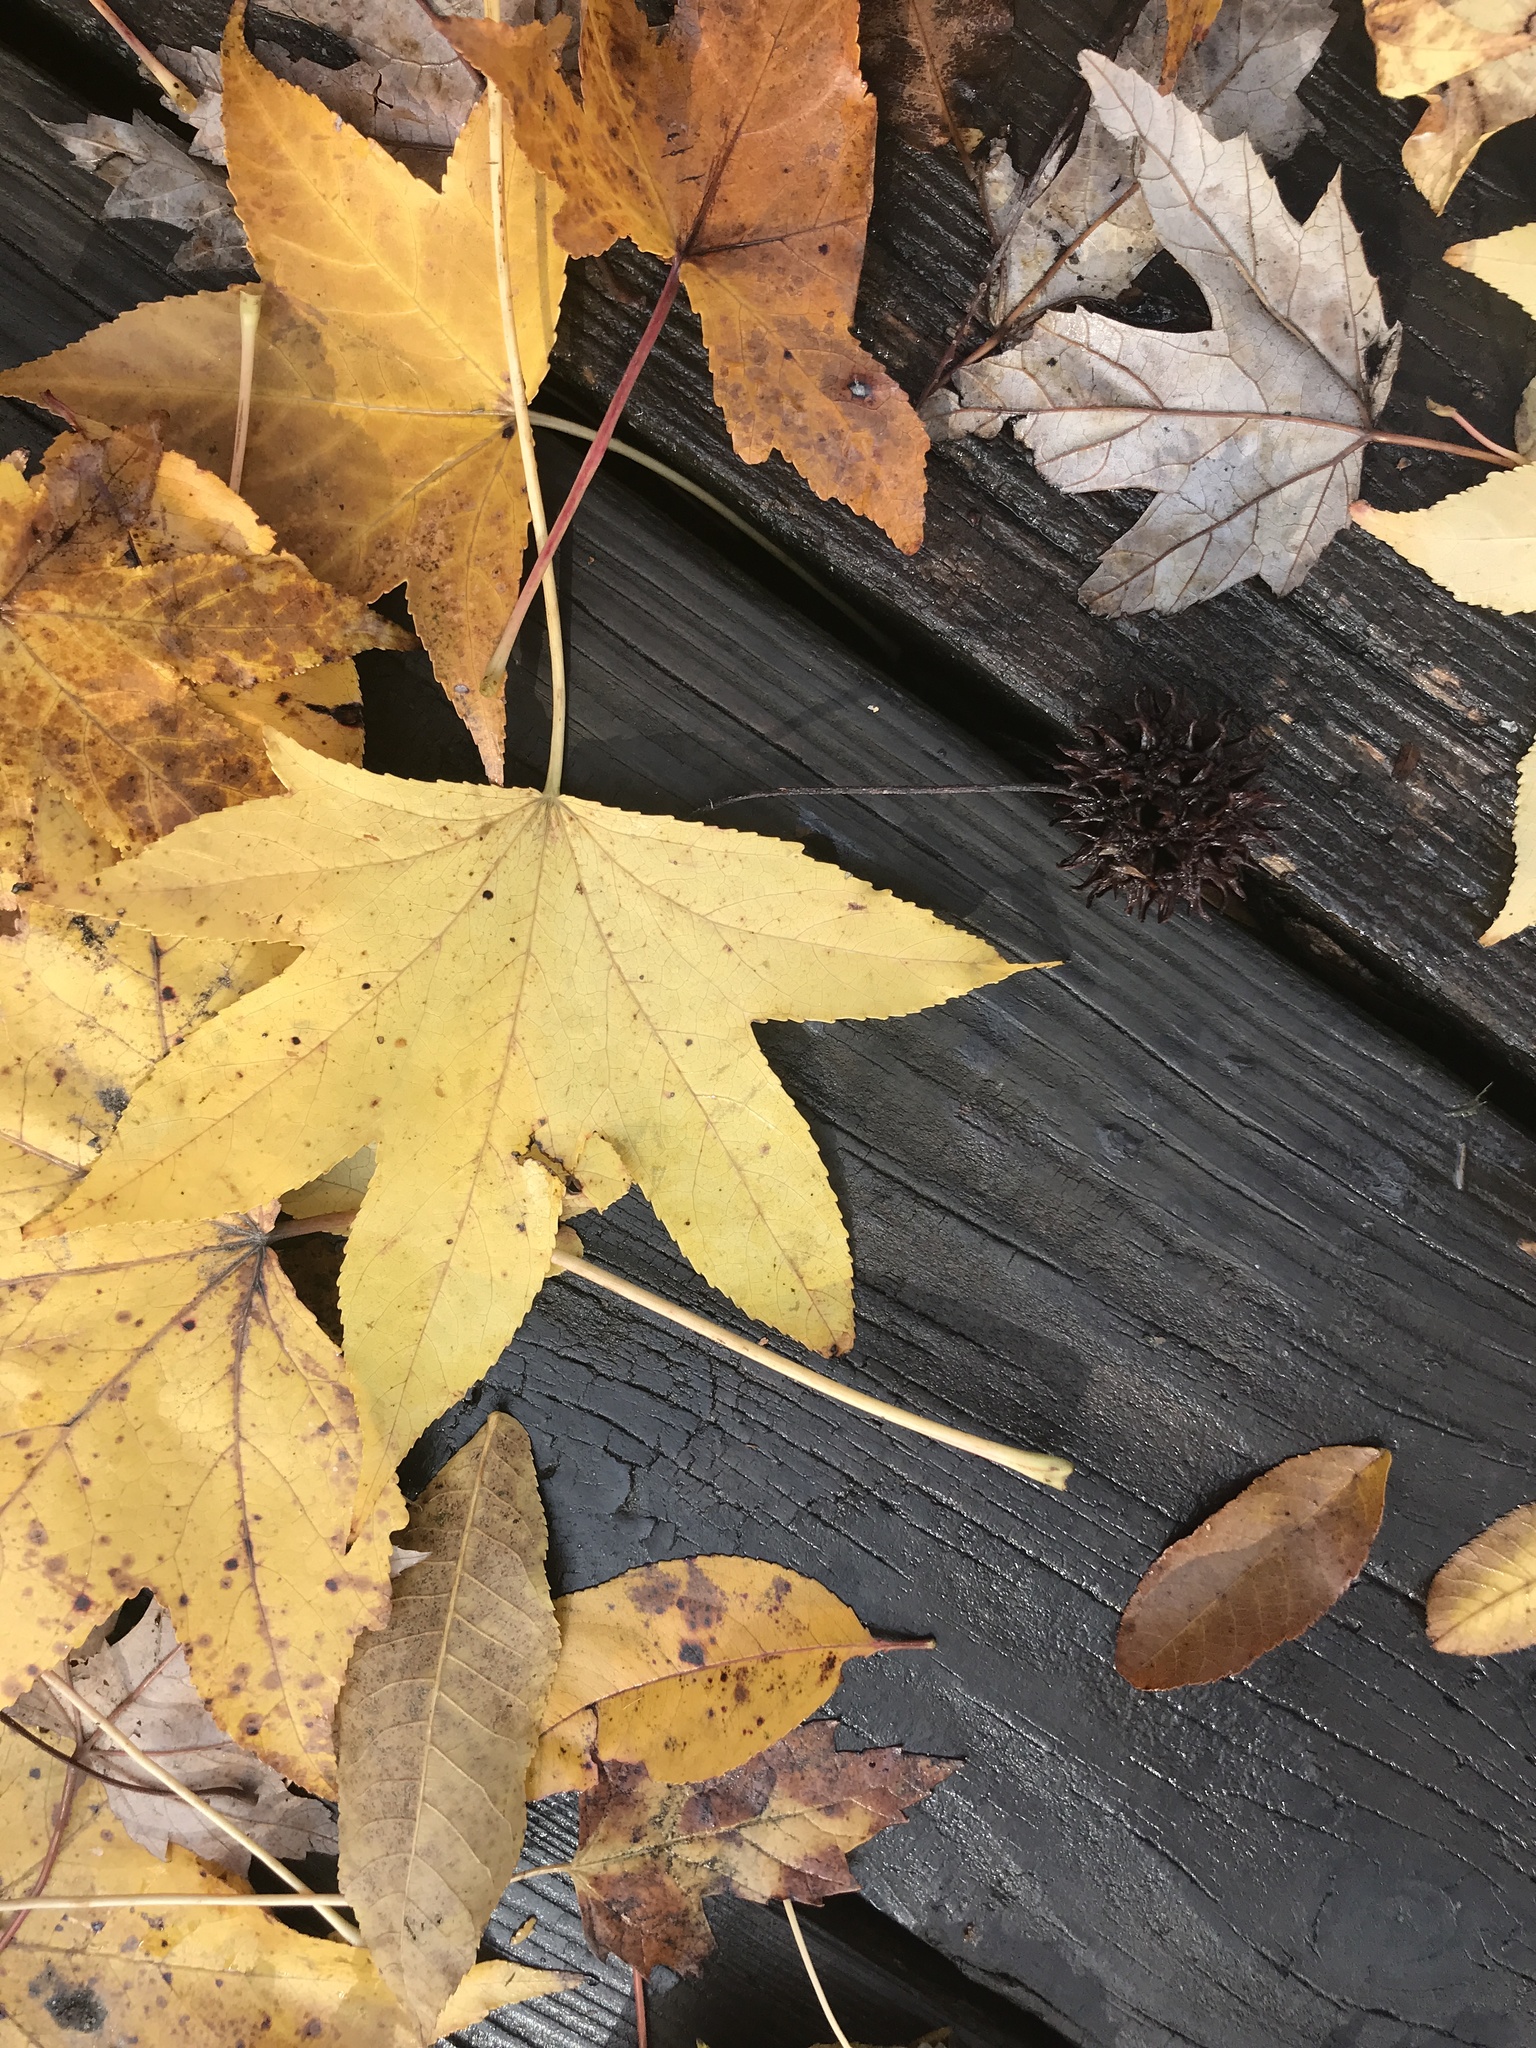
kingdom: Plantae
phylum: Tracheophyta
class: Magnoliopsida
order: Saxifragales
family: Altingiaceae
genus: Liquidambar
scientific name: Liquidambar styraciflua
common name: Sweet gum
